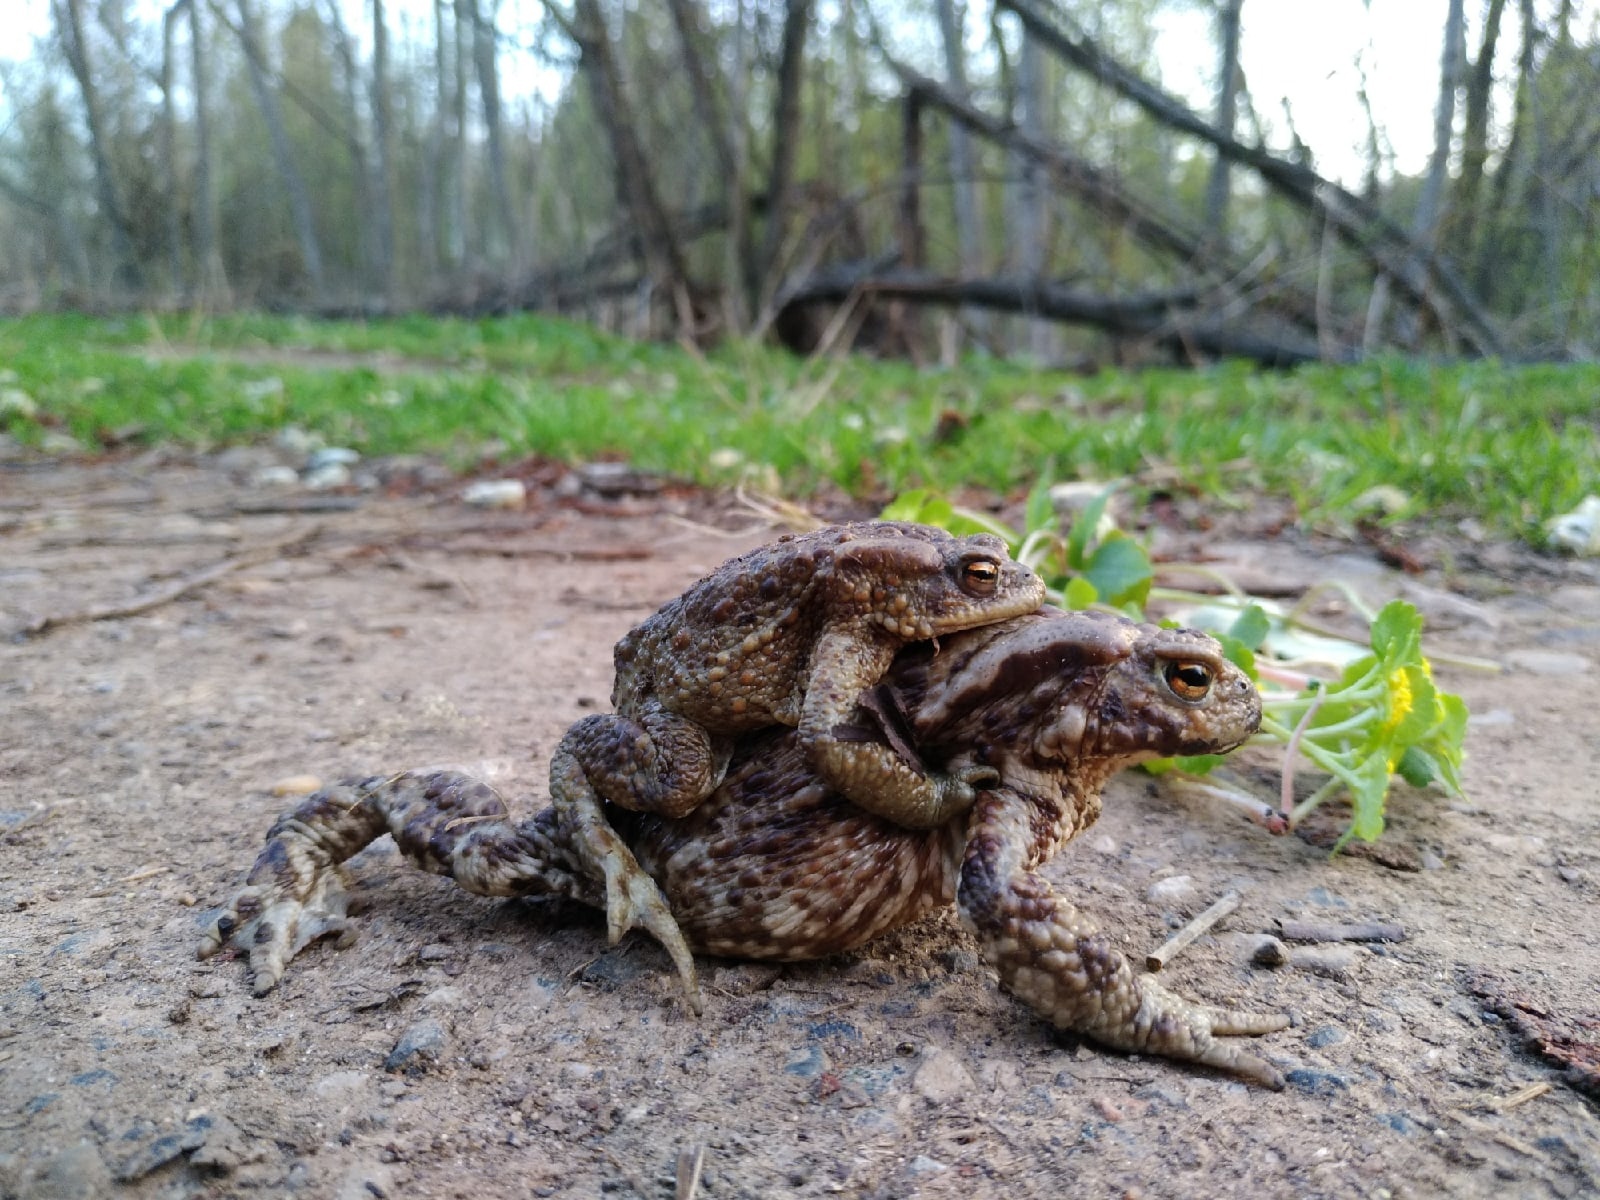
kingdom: Animalia
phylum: Chordata
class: Amphibia
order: Anura
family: Bufonidae
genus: Bufo
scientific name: Bufo bufo
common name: Common toad
